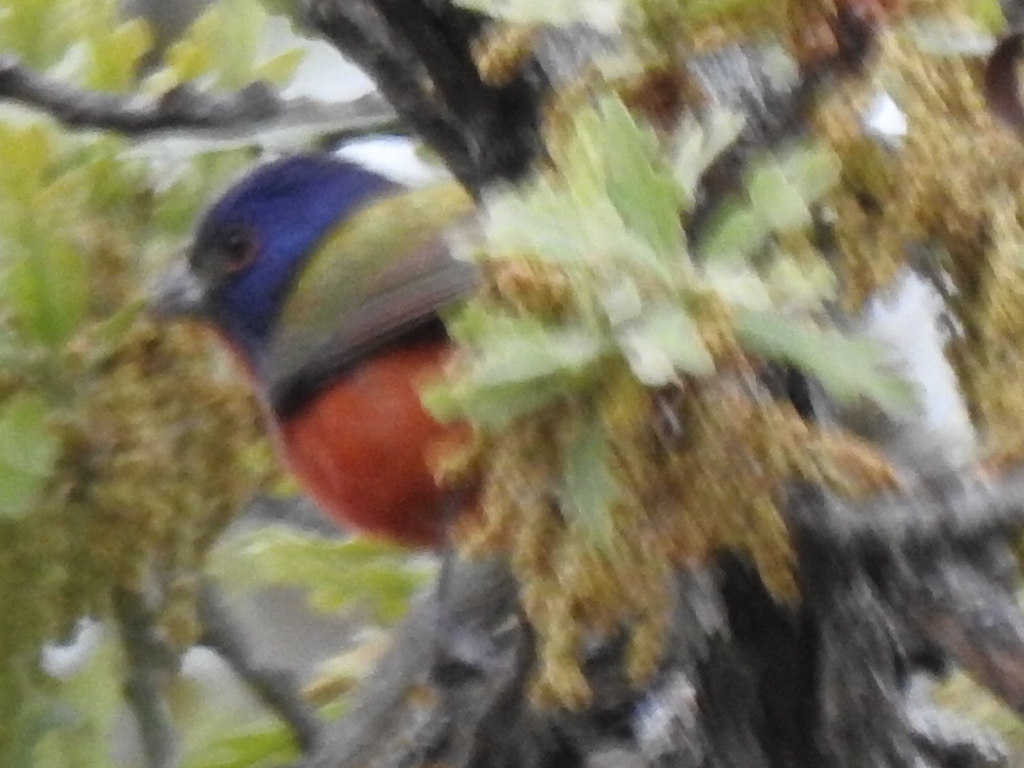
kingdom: Animalia
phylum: Chordata
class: Aves
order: Passeriformes
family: Cardinalidae
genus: Passerina
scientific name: Passerina ciris
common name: Painted bunting
